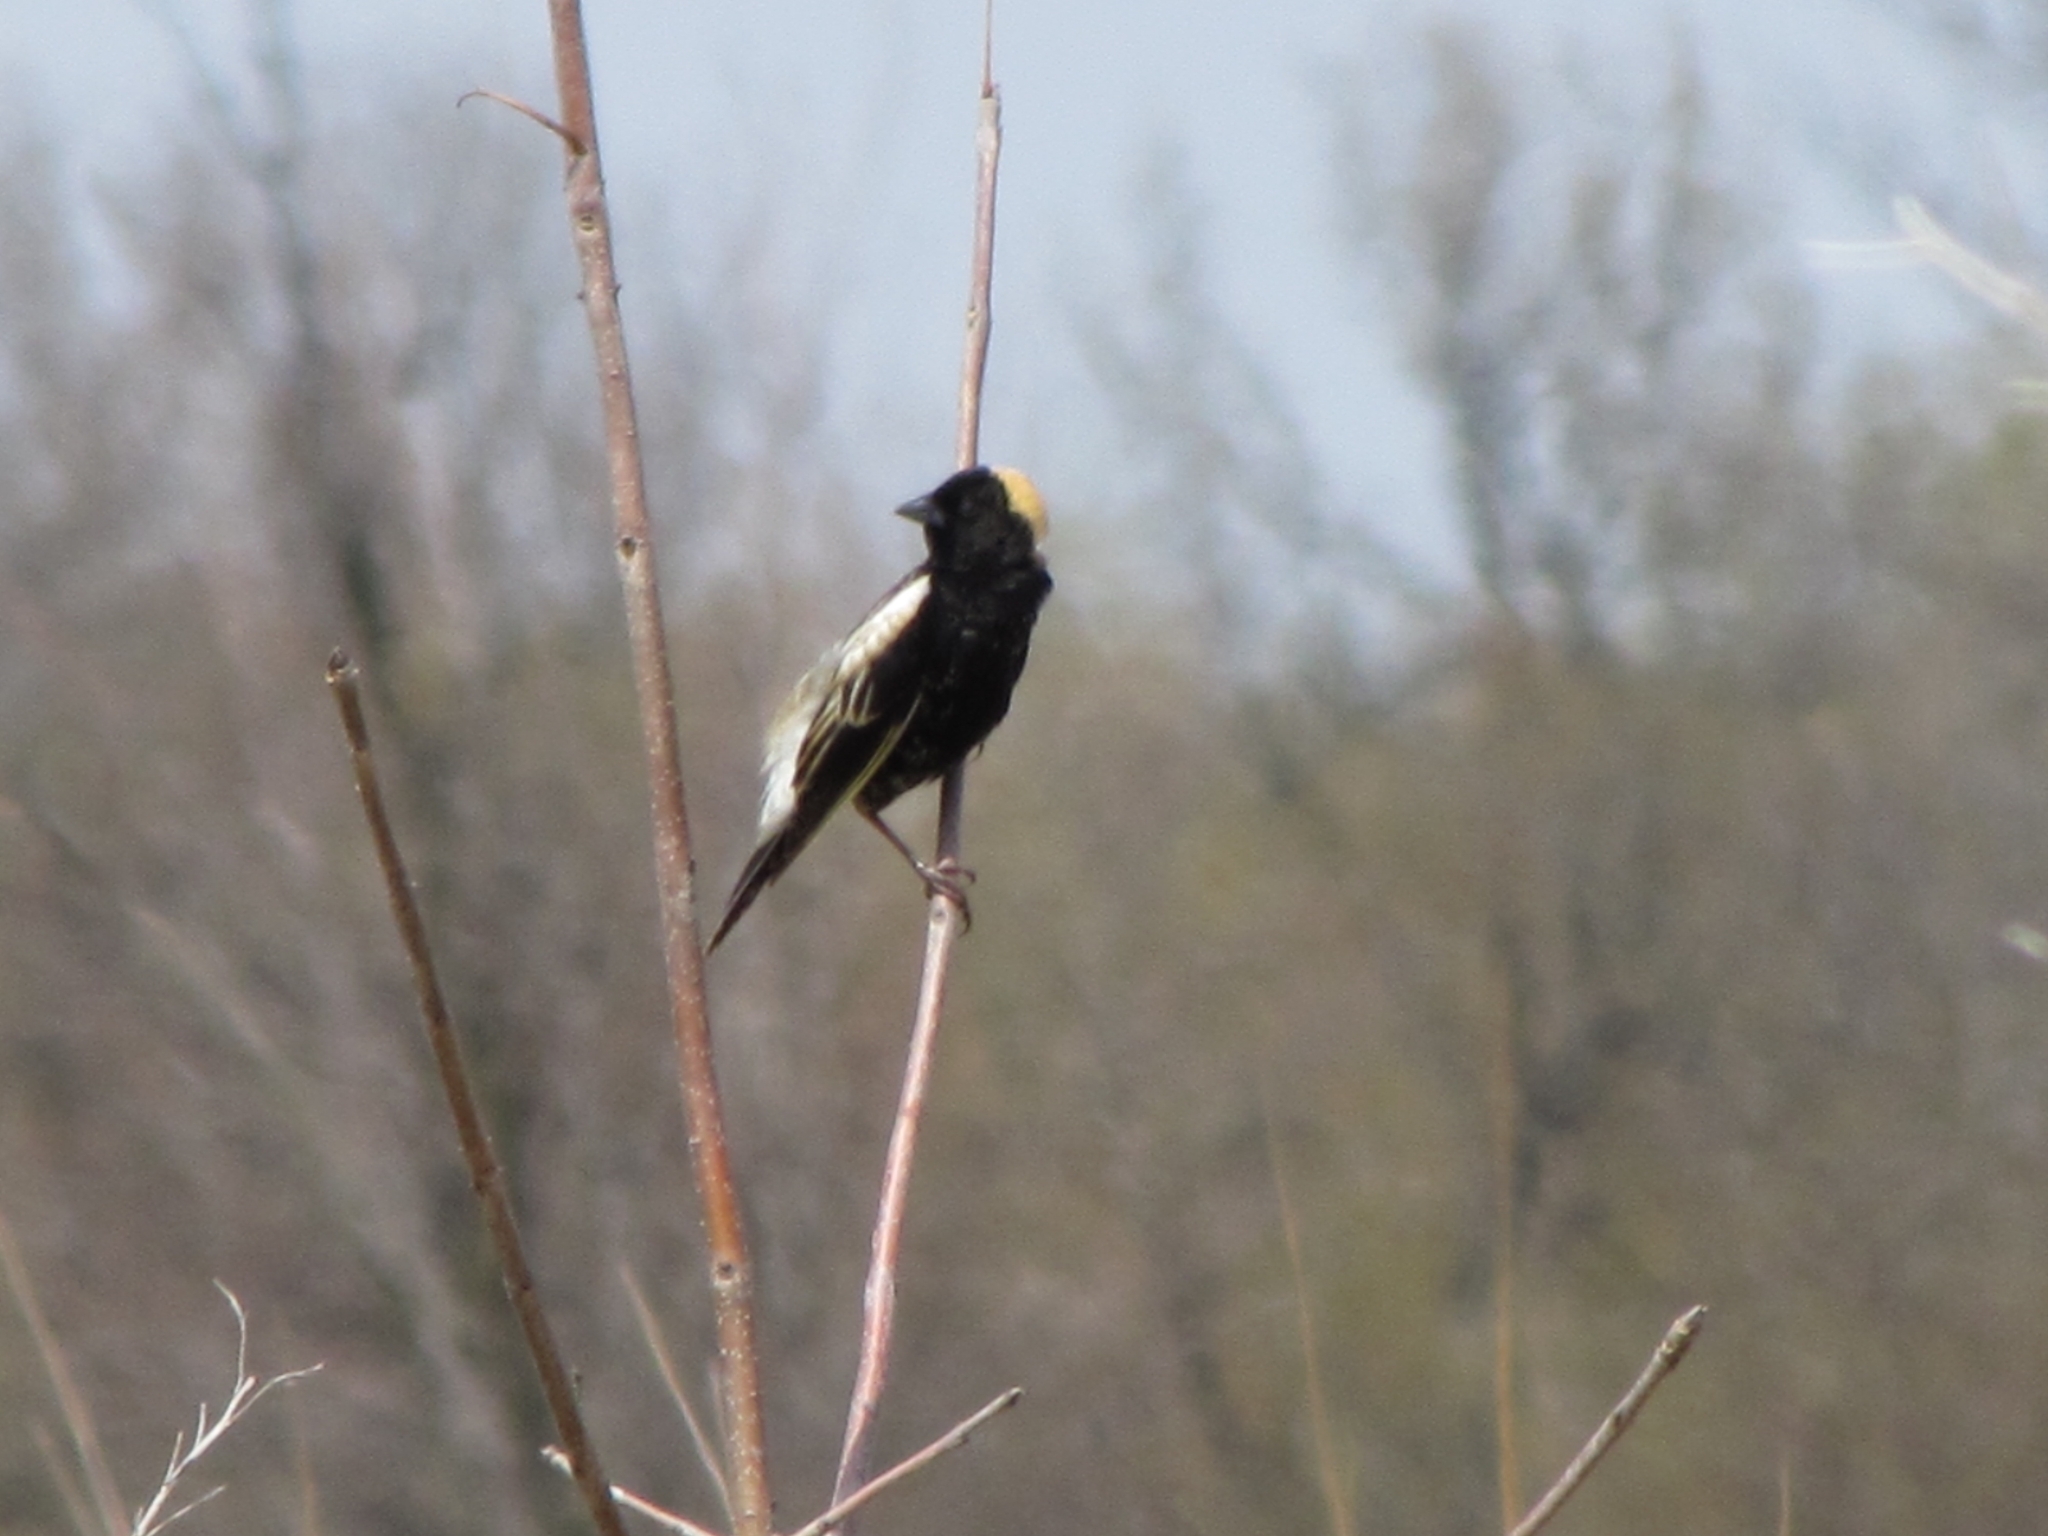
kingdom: Animalia
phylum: Chordata
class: Aves
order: Passeriformes
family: Icteridae
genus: Dolichonyx
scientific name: Dolichonyx oryzivorus
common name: Bobolink
